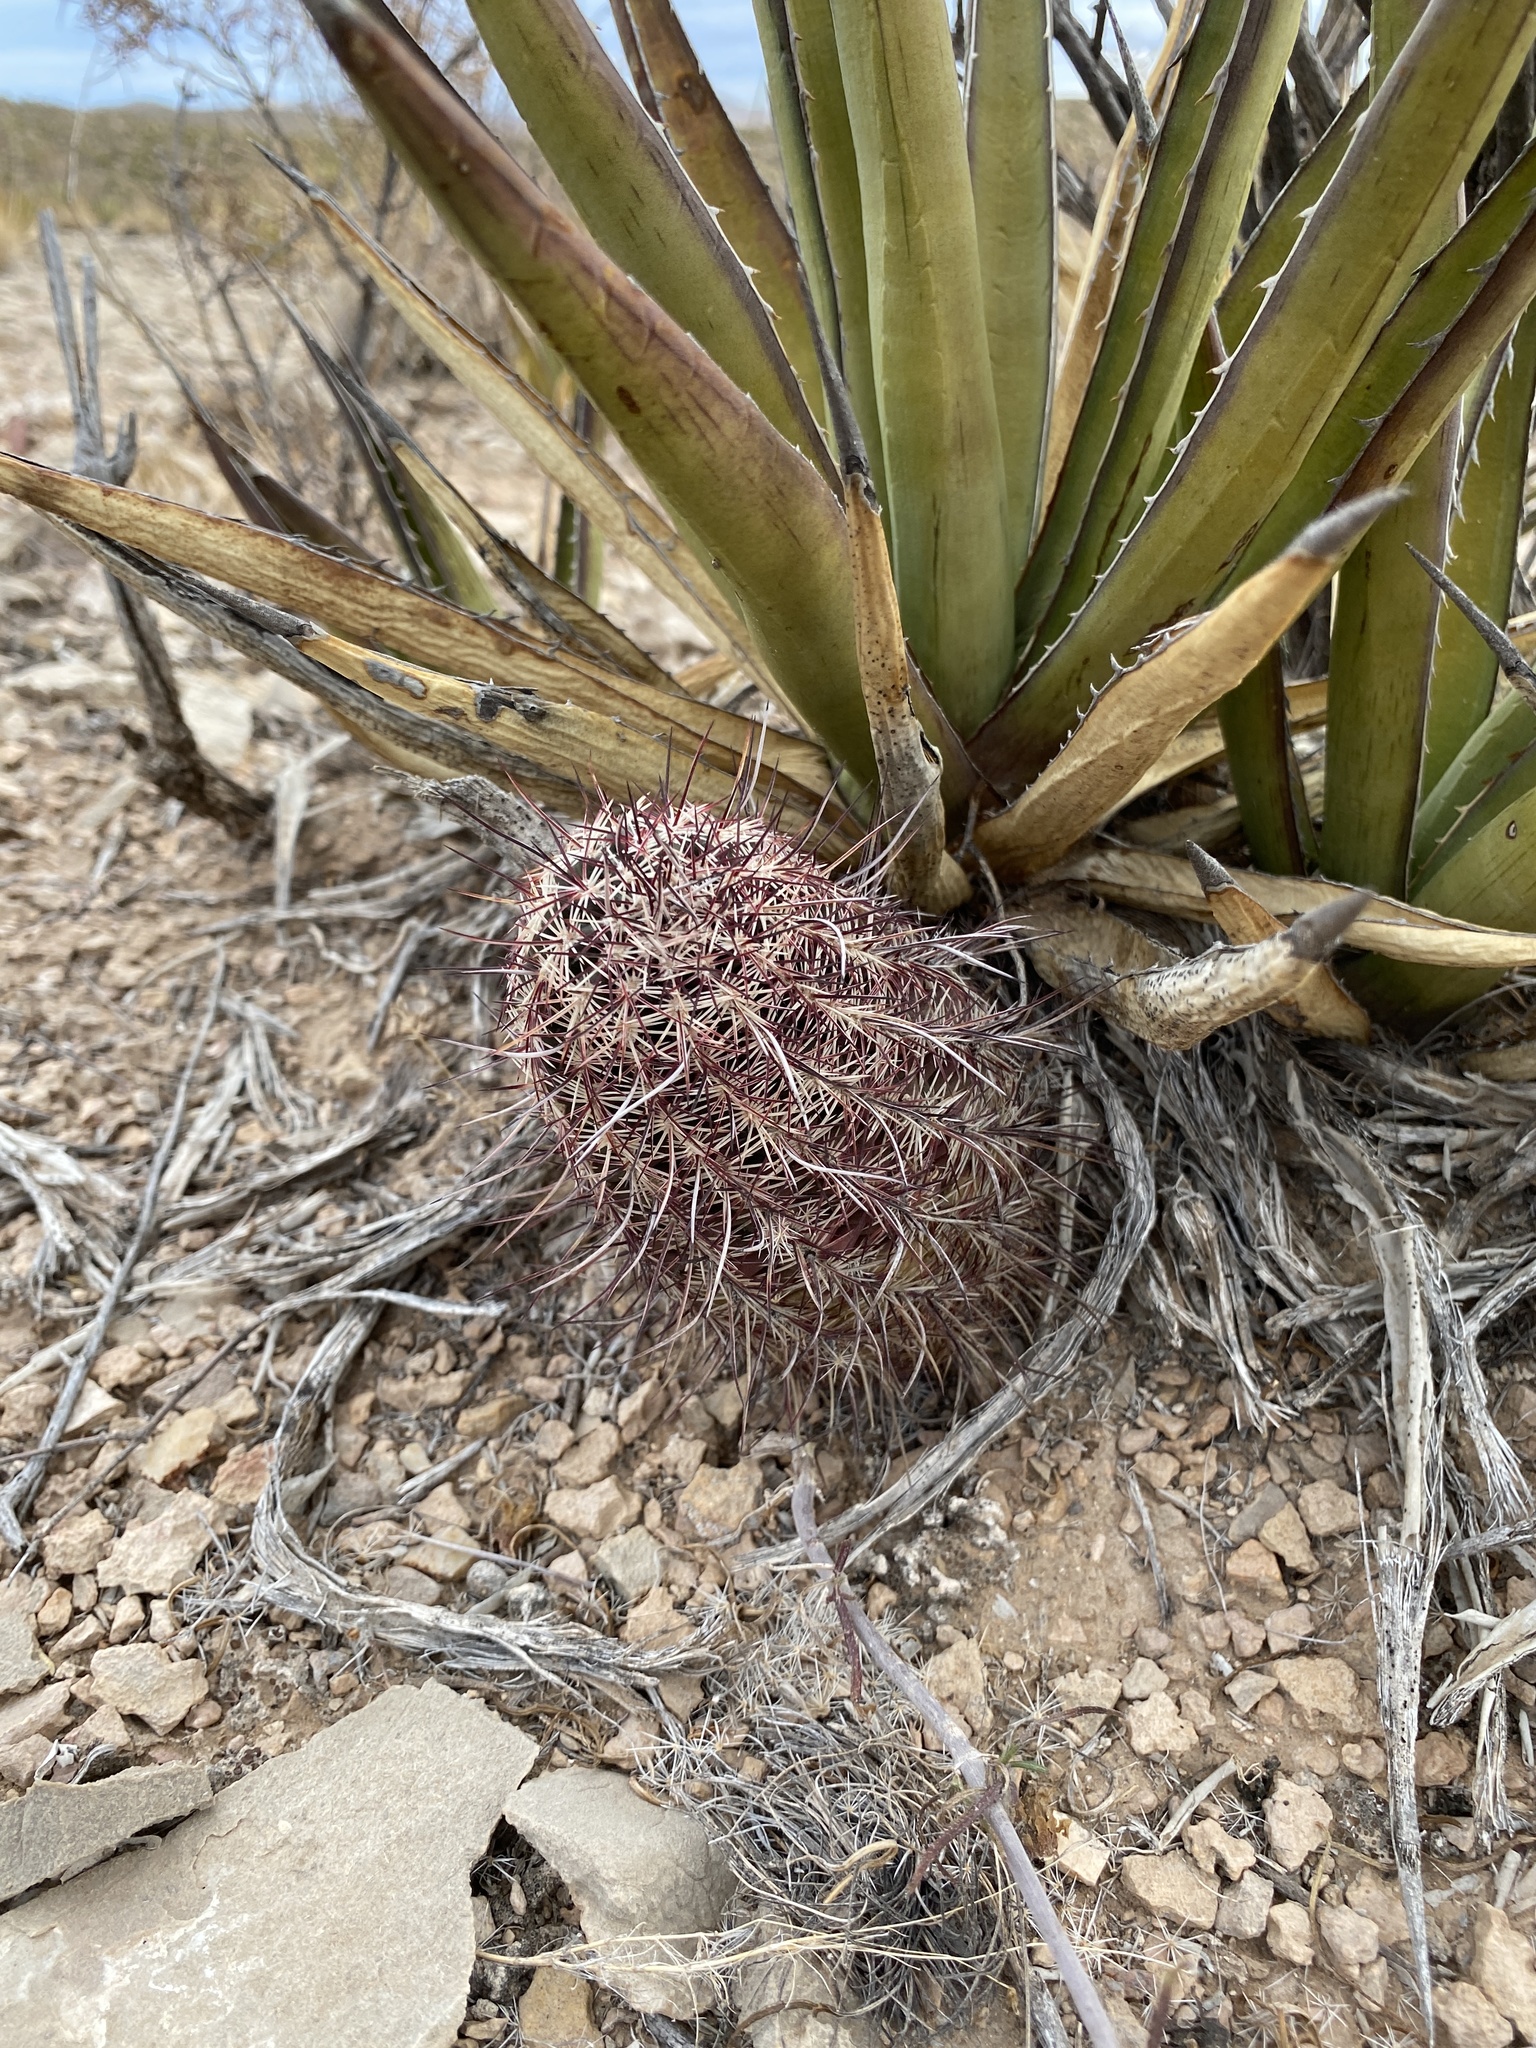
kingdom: Plantae
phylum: Tracheophyta
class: Magnoliopsida
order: Caryophyllales
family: Cactaceae
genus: Echinocereus
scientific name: Echinocereus viridiflorus
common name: Nylon hedgehog cactus
